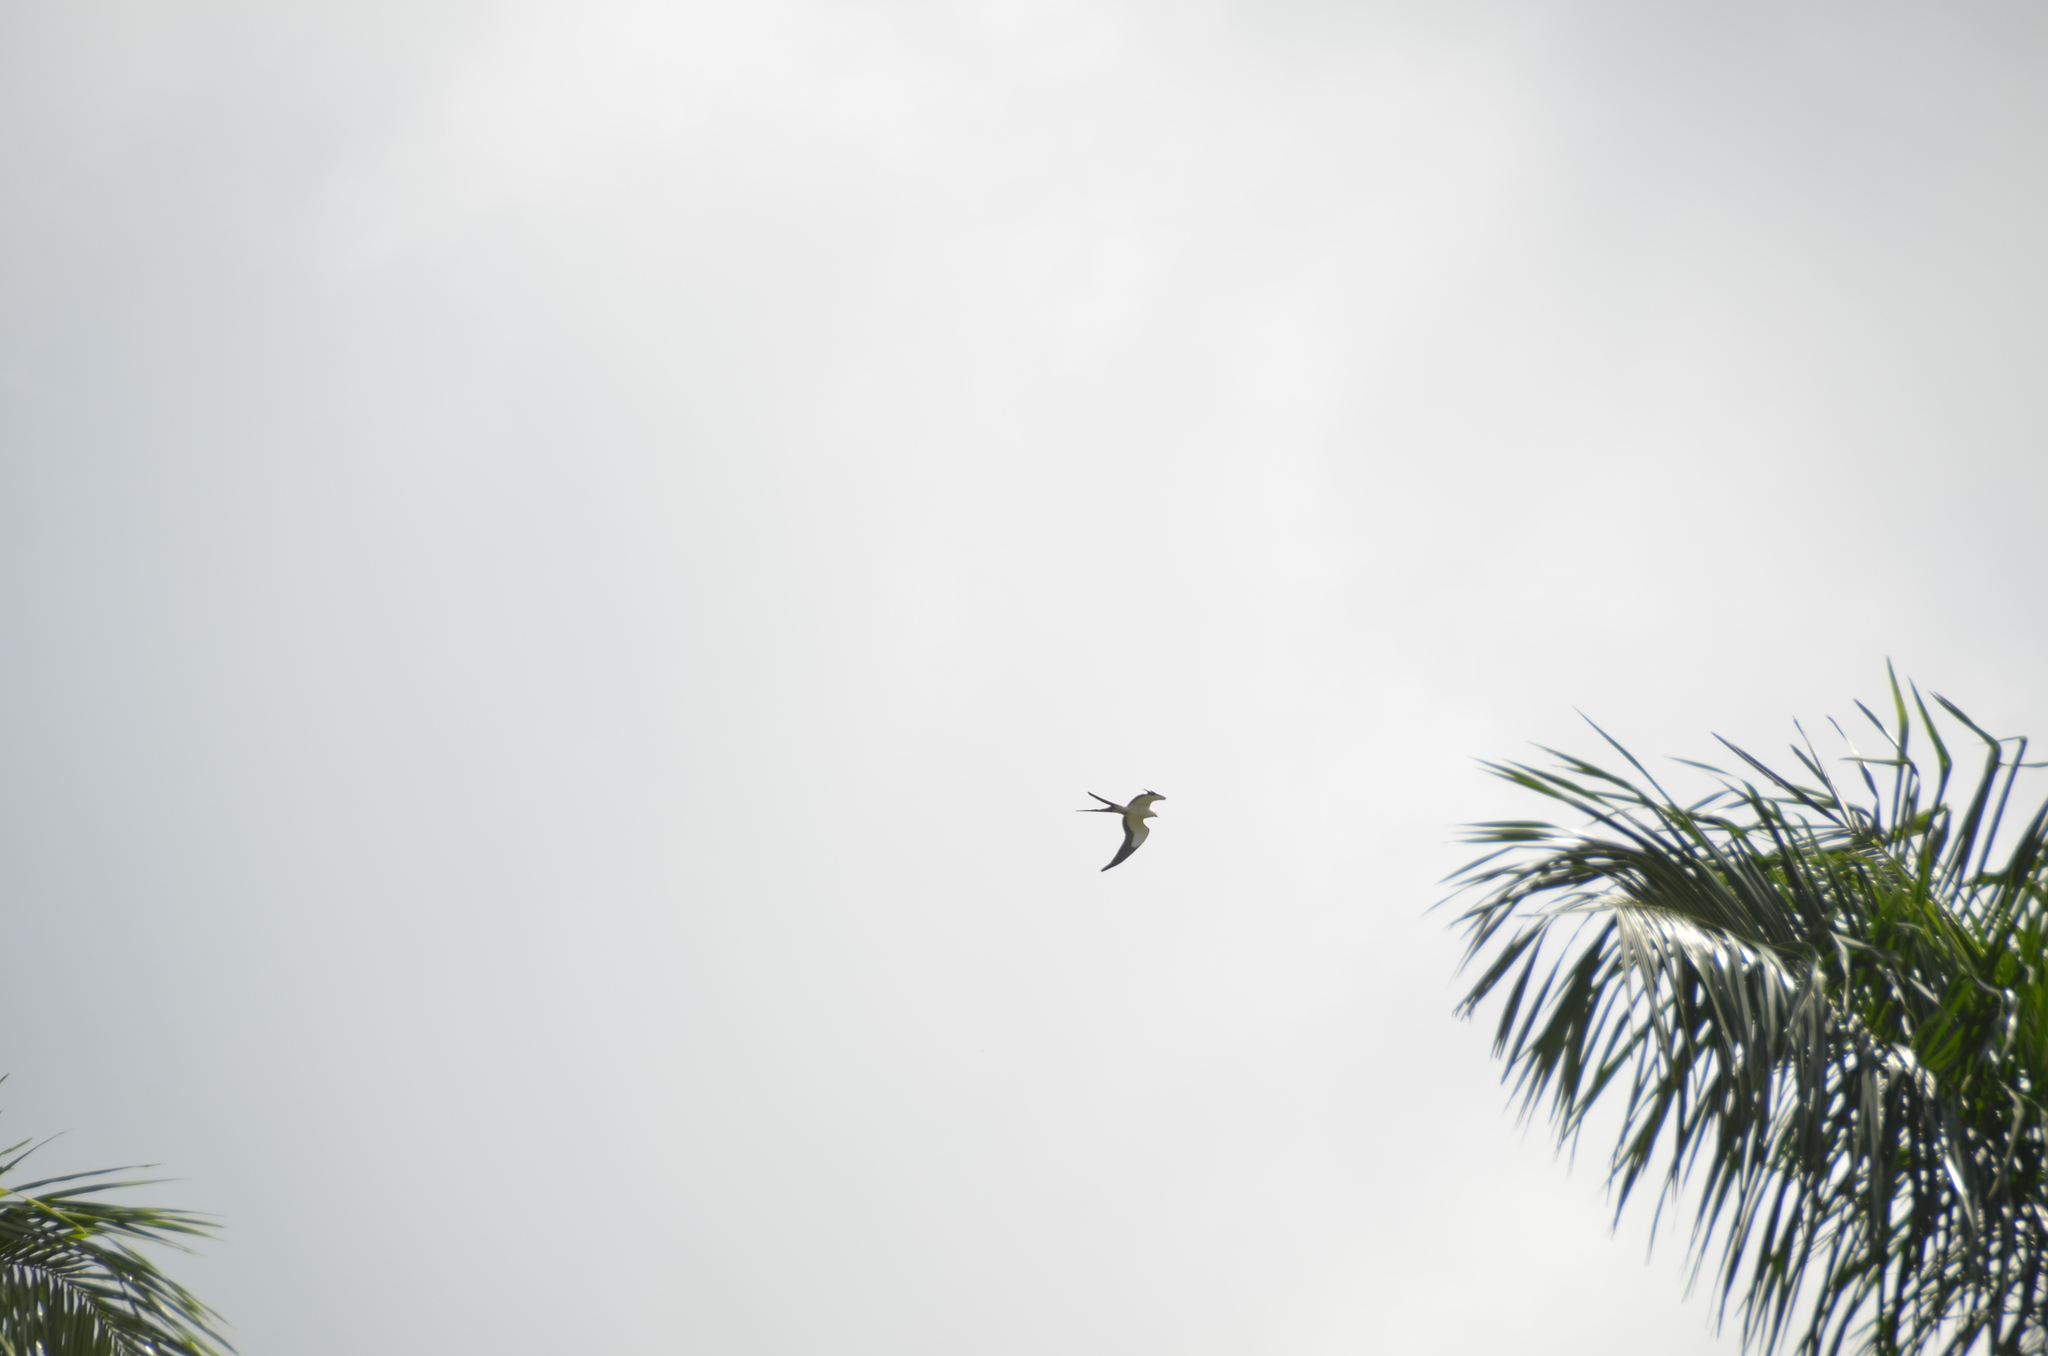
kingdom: Animalia
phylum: Chordata
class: Aves
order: Accipitriformes
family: Accipitridae
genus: Elanoides
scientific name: Elanoides forficatus
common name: Swallow-tailed kite
